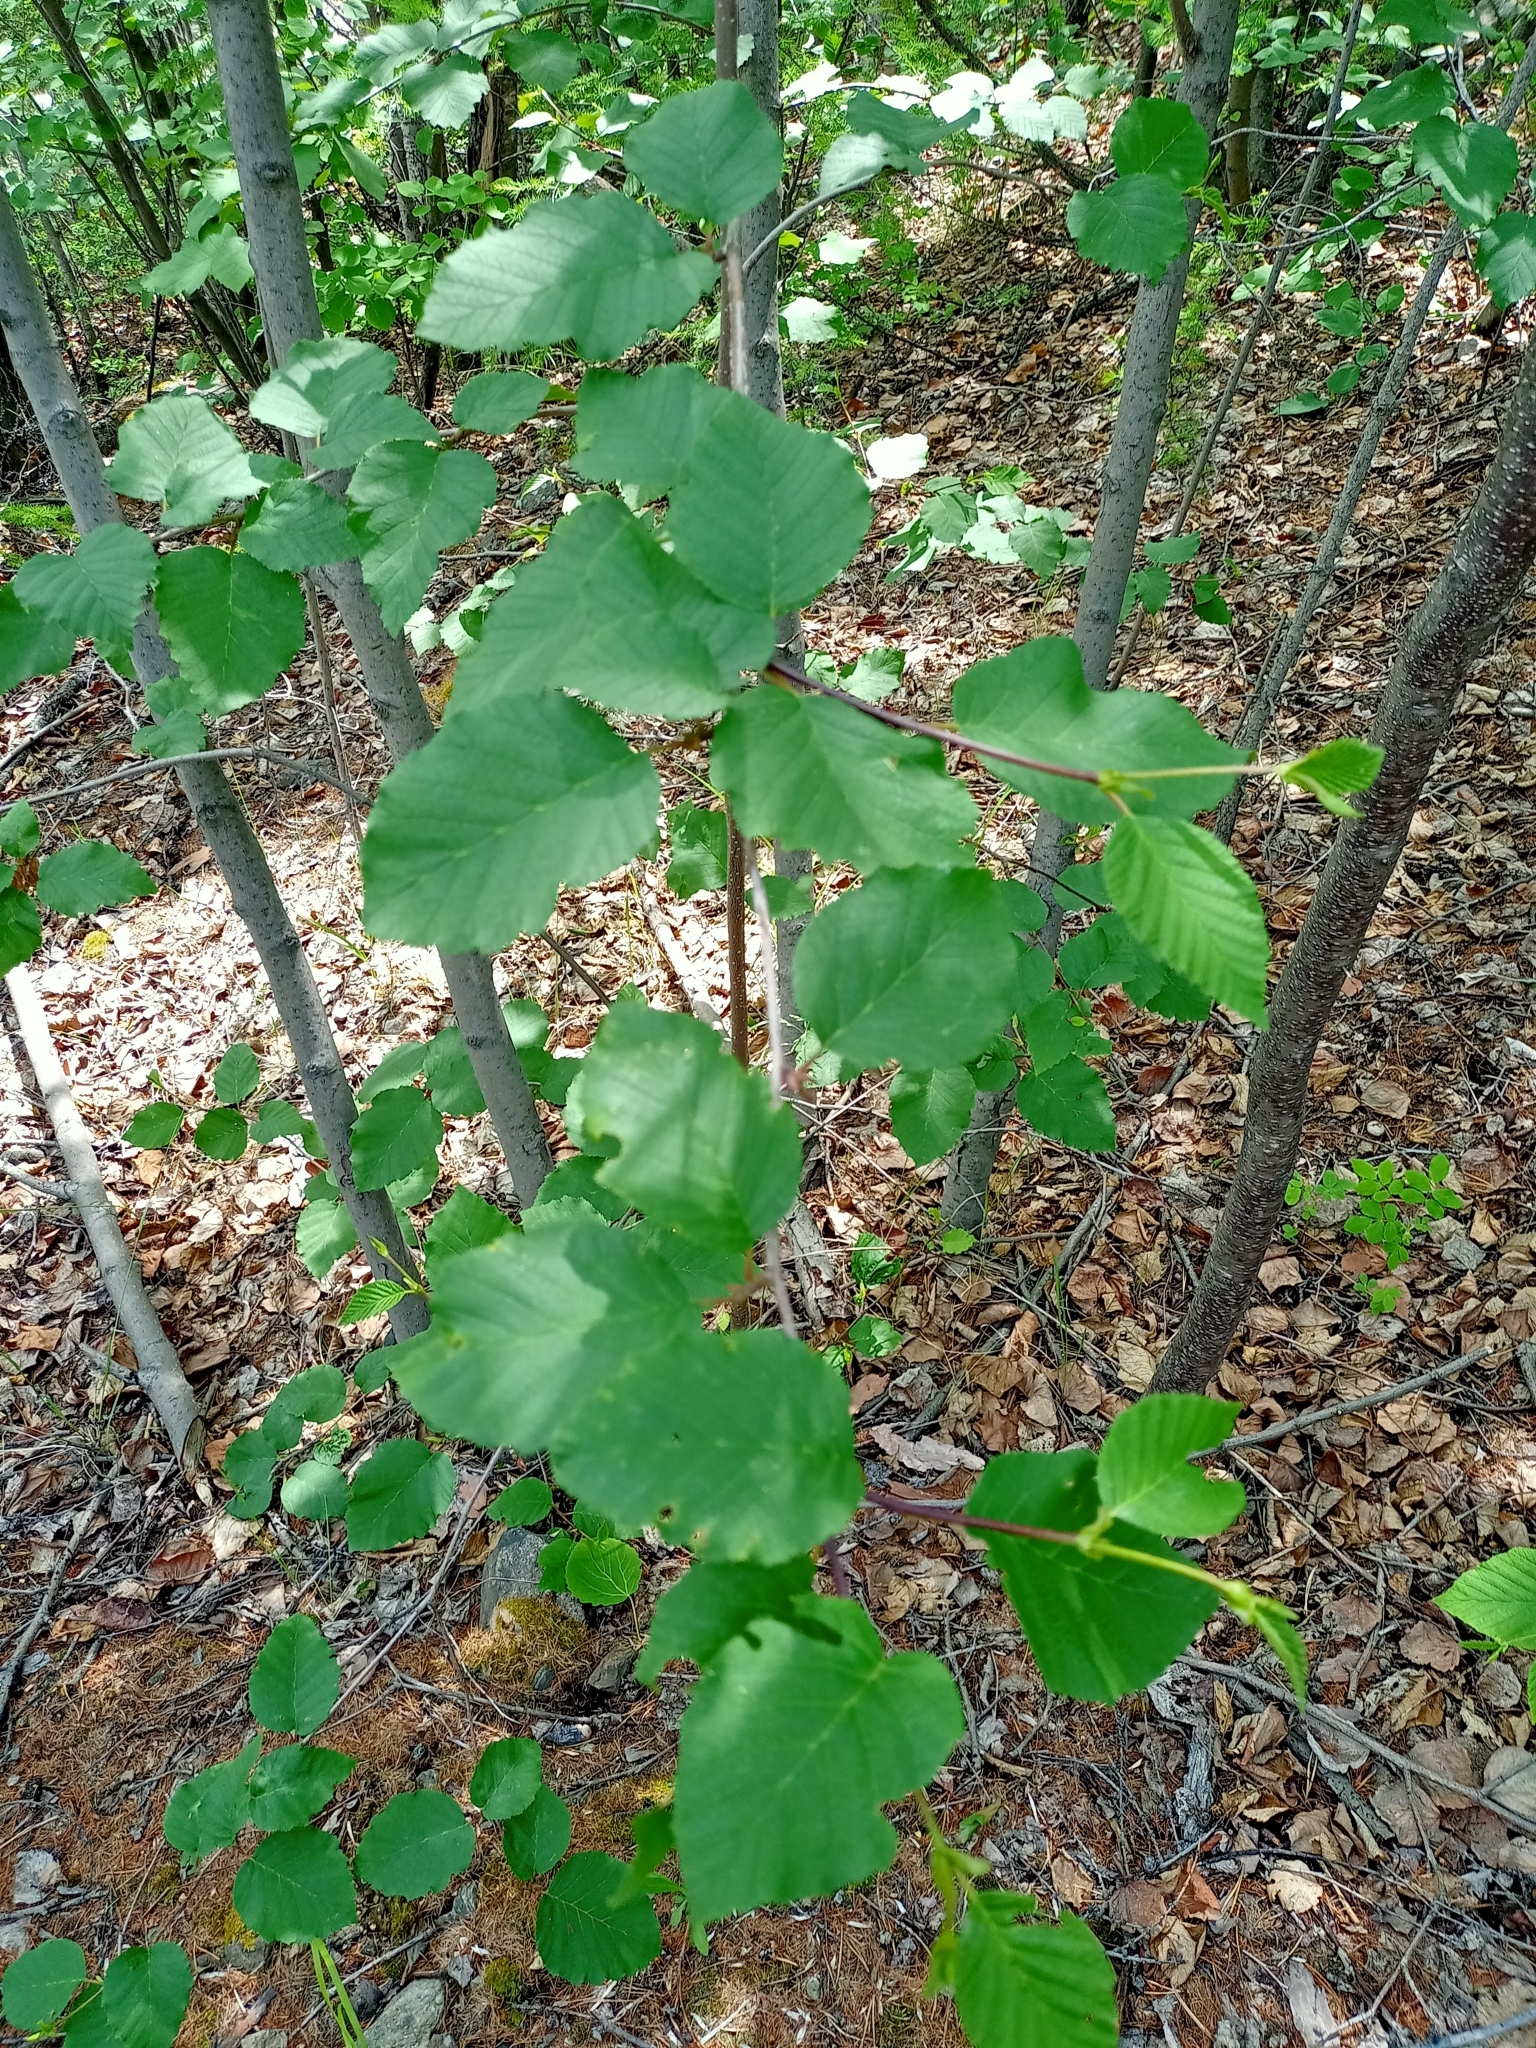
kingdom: Plantae
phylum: Tracheophyta
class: Magnoliopsida
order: Fagales
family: Betulaceae
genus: Alnus
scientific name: Alnus alnobetula
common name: Green alder
